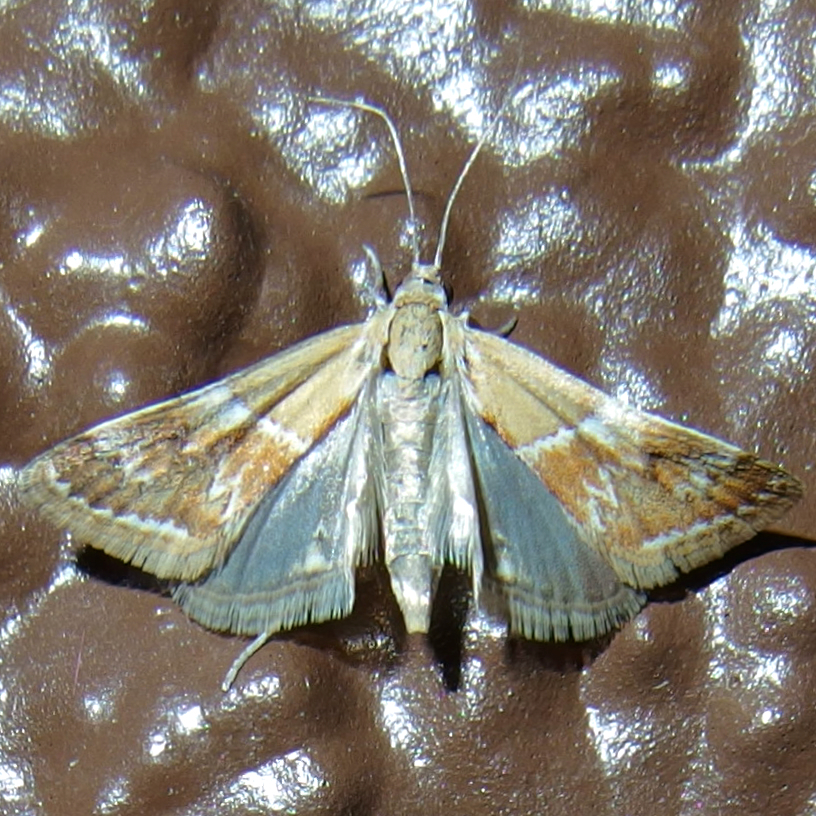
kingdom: Animalia
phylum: Arthropoda
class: Insecta
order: Lepidoptera
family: Crambidae
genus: Noctueliopsis
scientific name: Noctueliopsis bububattalis
